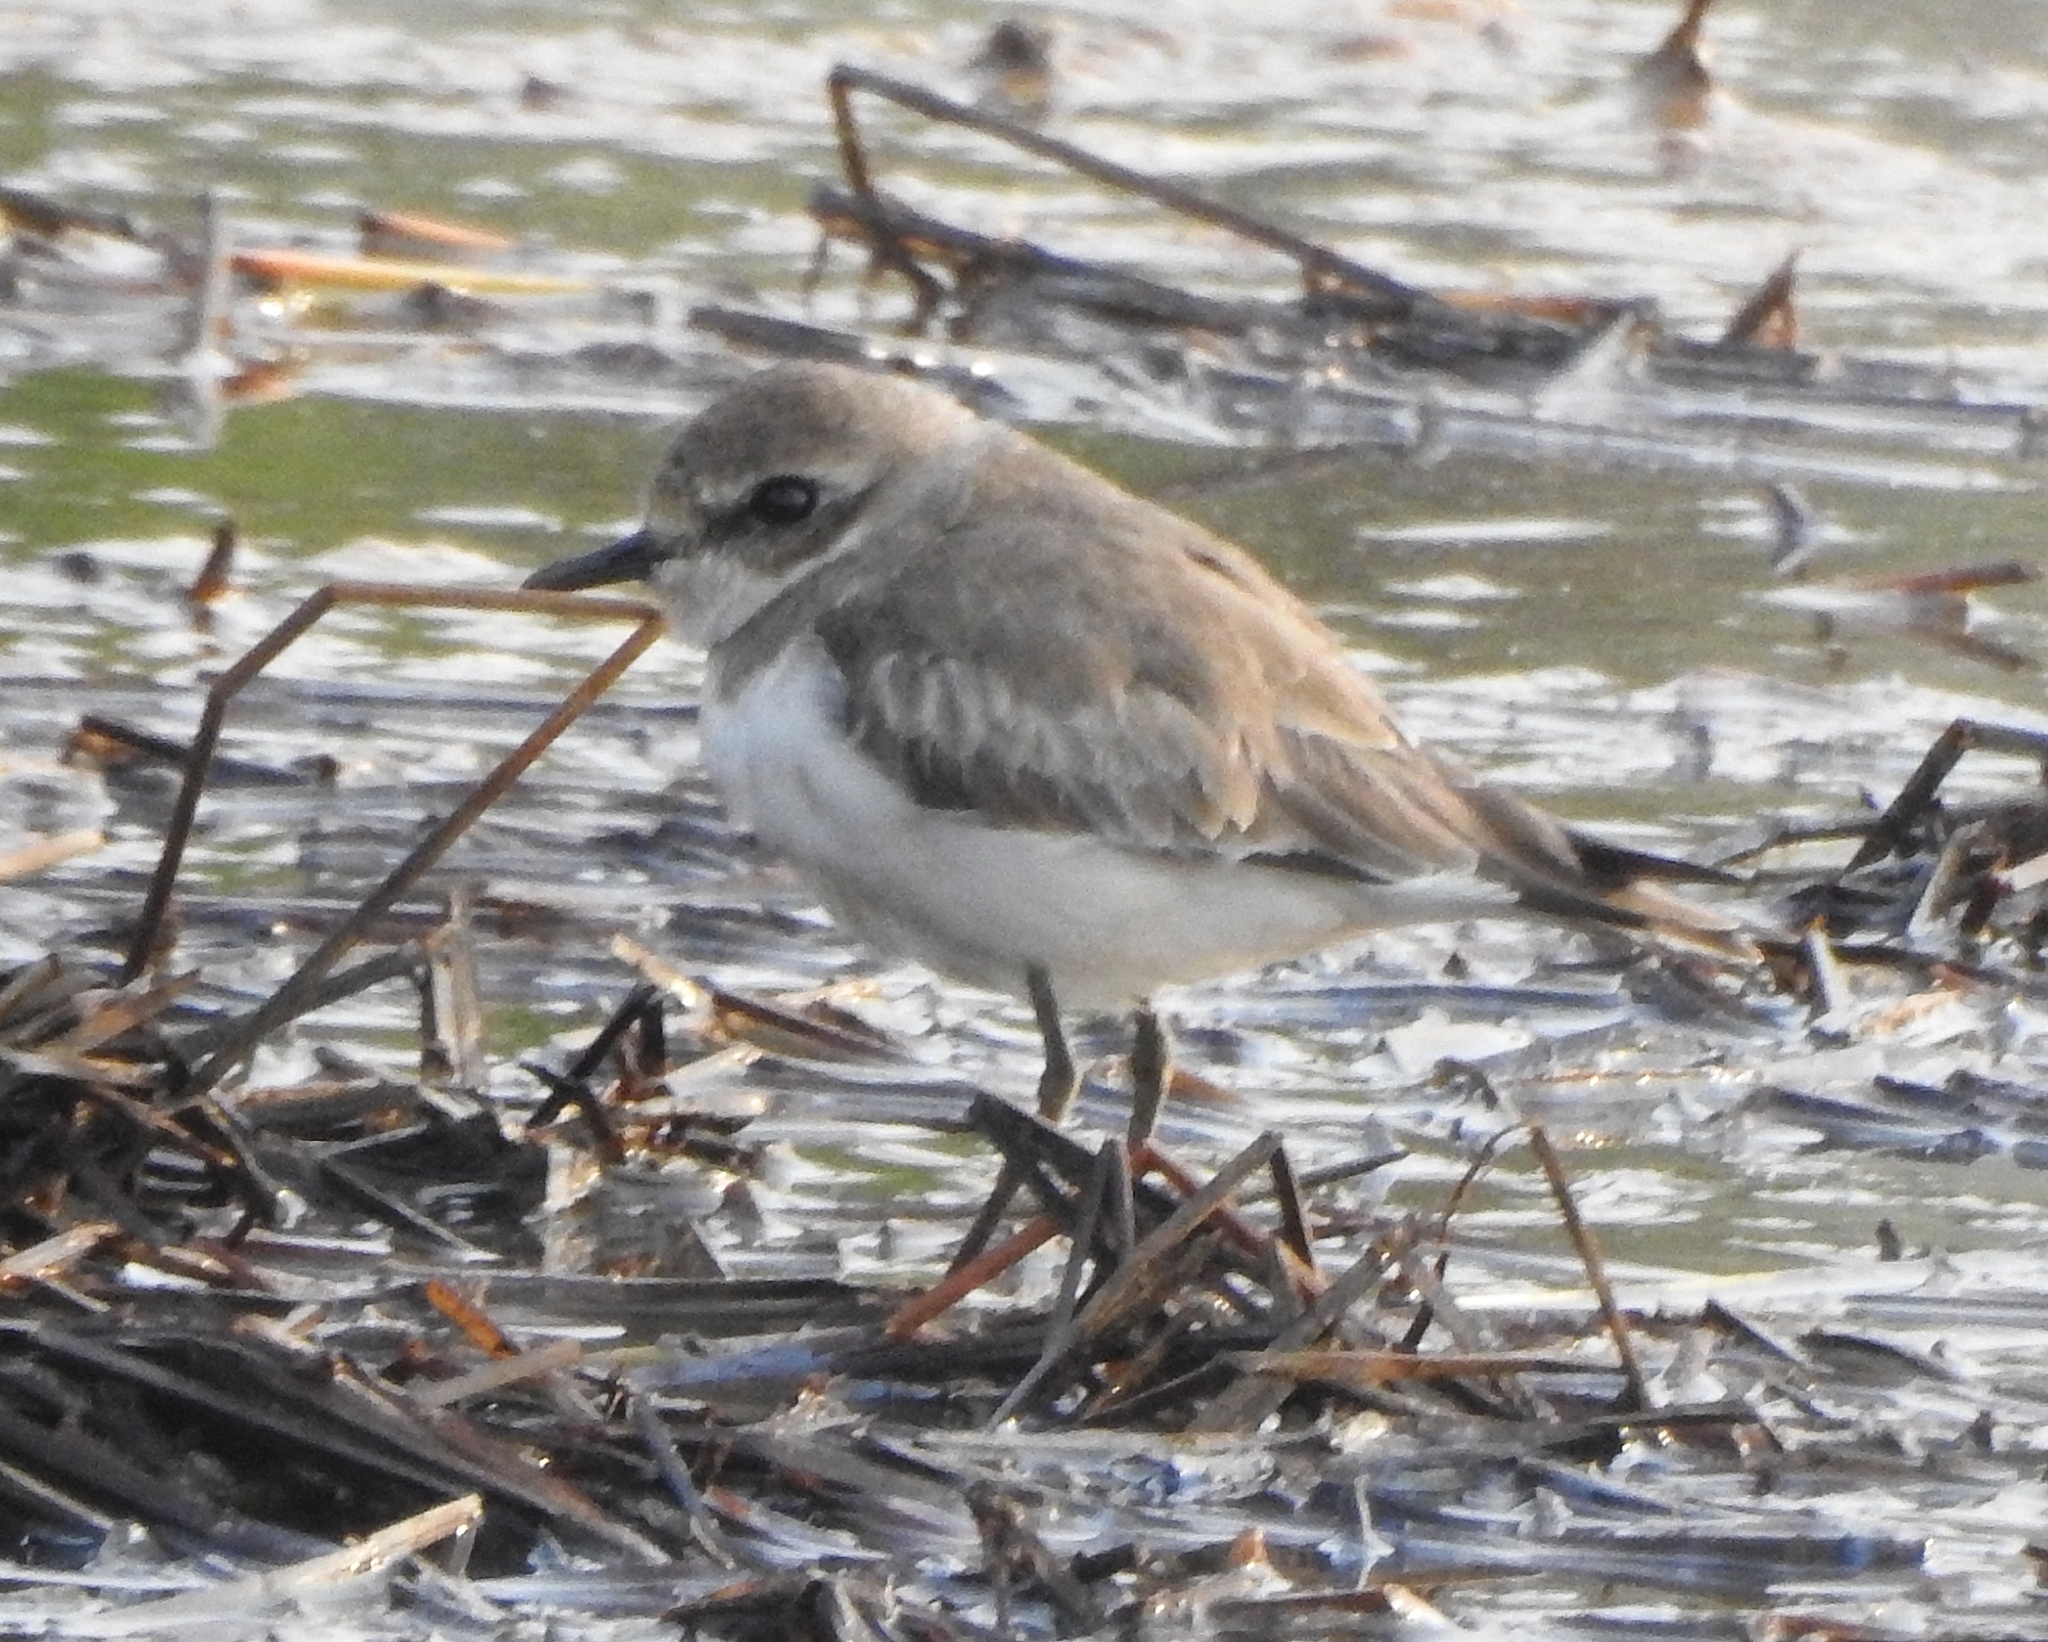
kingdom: Animalia
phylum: Chordata
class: Aves
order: Charadriiformes
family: Charadriidae
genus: Anarhynchus
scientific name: Anarhynchus
